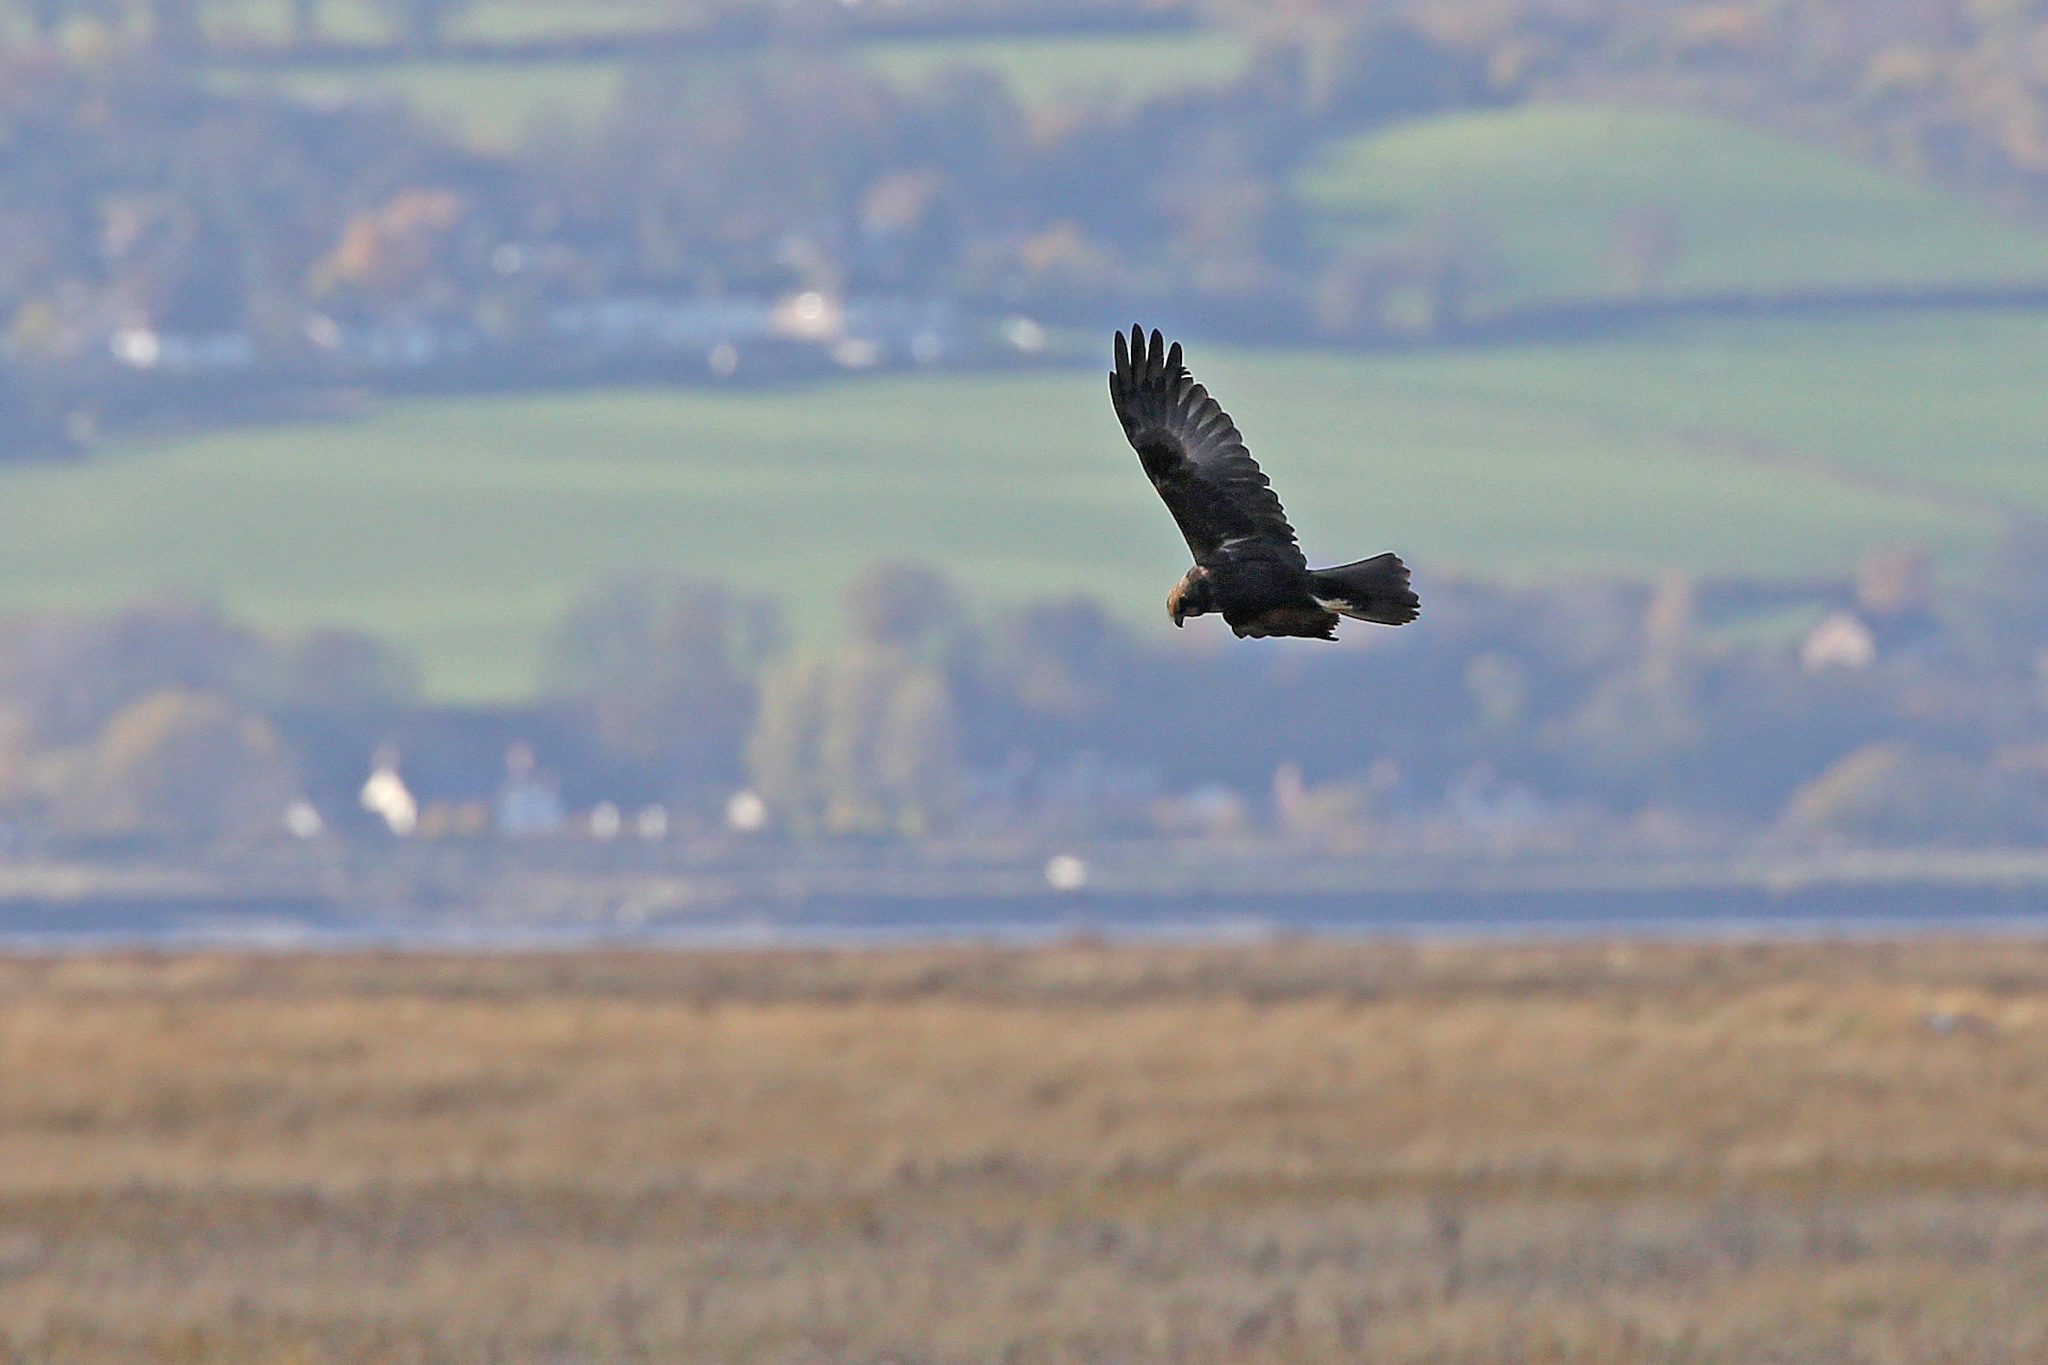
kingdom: Animalia
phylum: Chordata
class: Aves
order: Accipitriformes
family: Accipitridae
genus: Circus
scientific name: Circus aeruginosus
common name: Western marsh harrier
